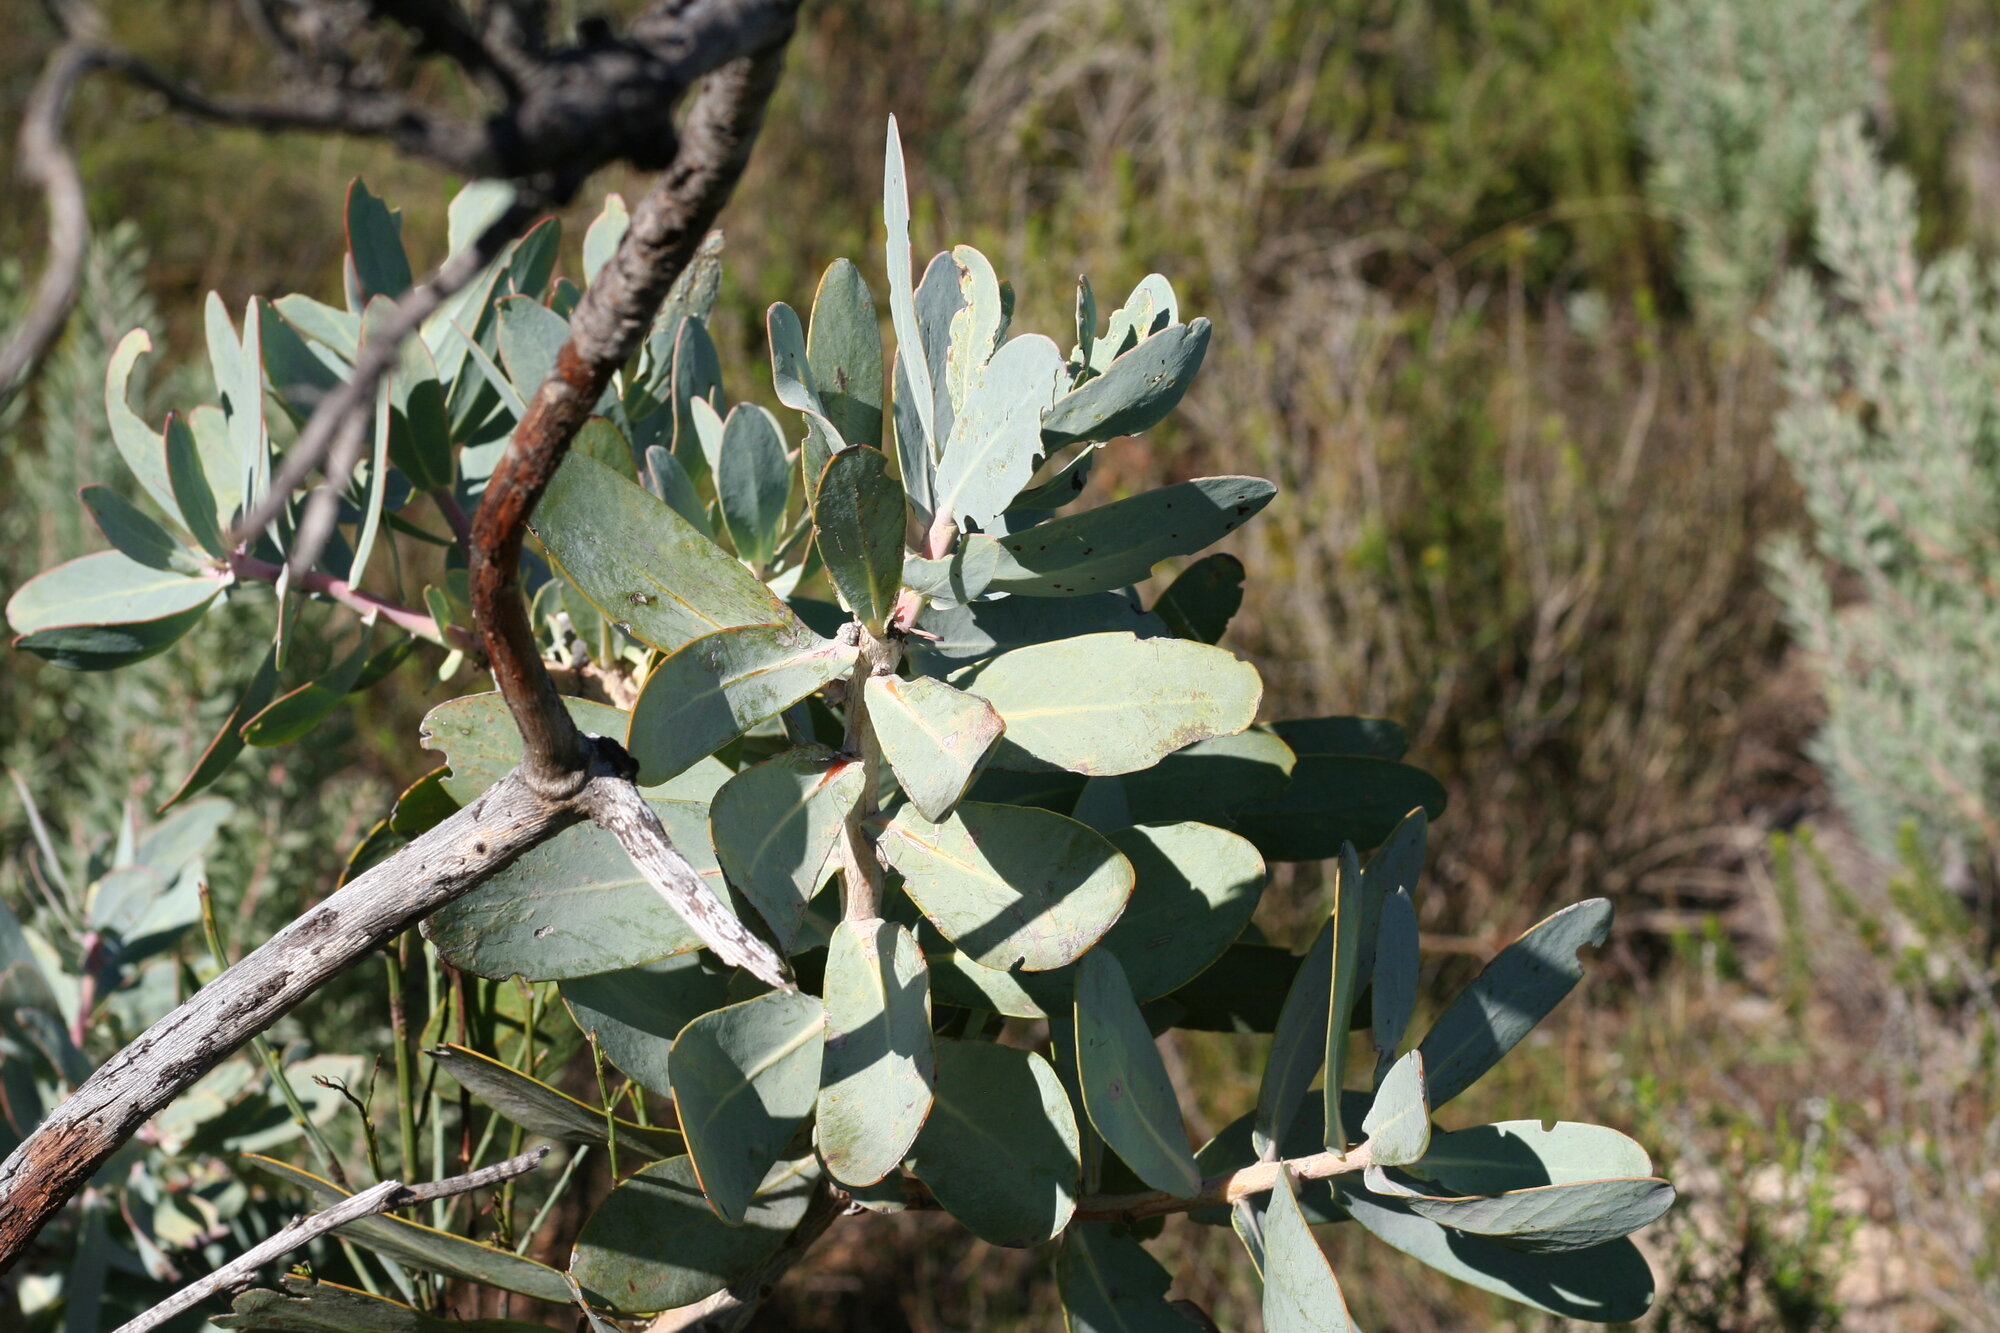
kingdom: Plantae
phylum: Tracheophyta
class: Magnoliopsida
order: Proteales
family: Proteaceae
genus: Protea
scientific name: Protea nitida
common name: Tree protea
